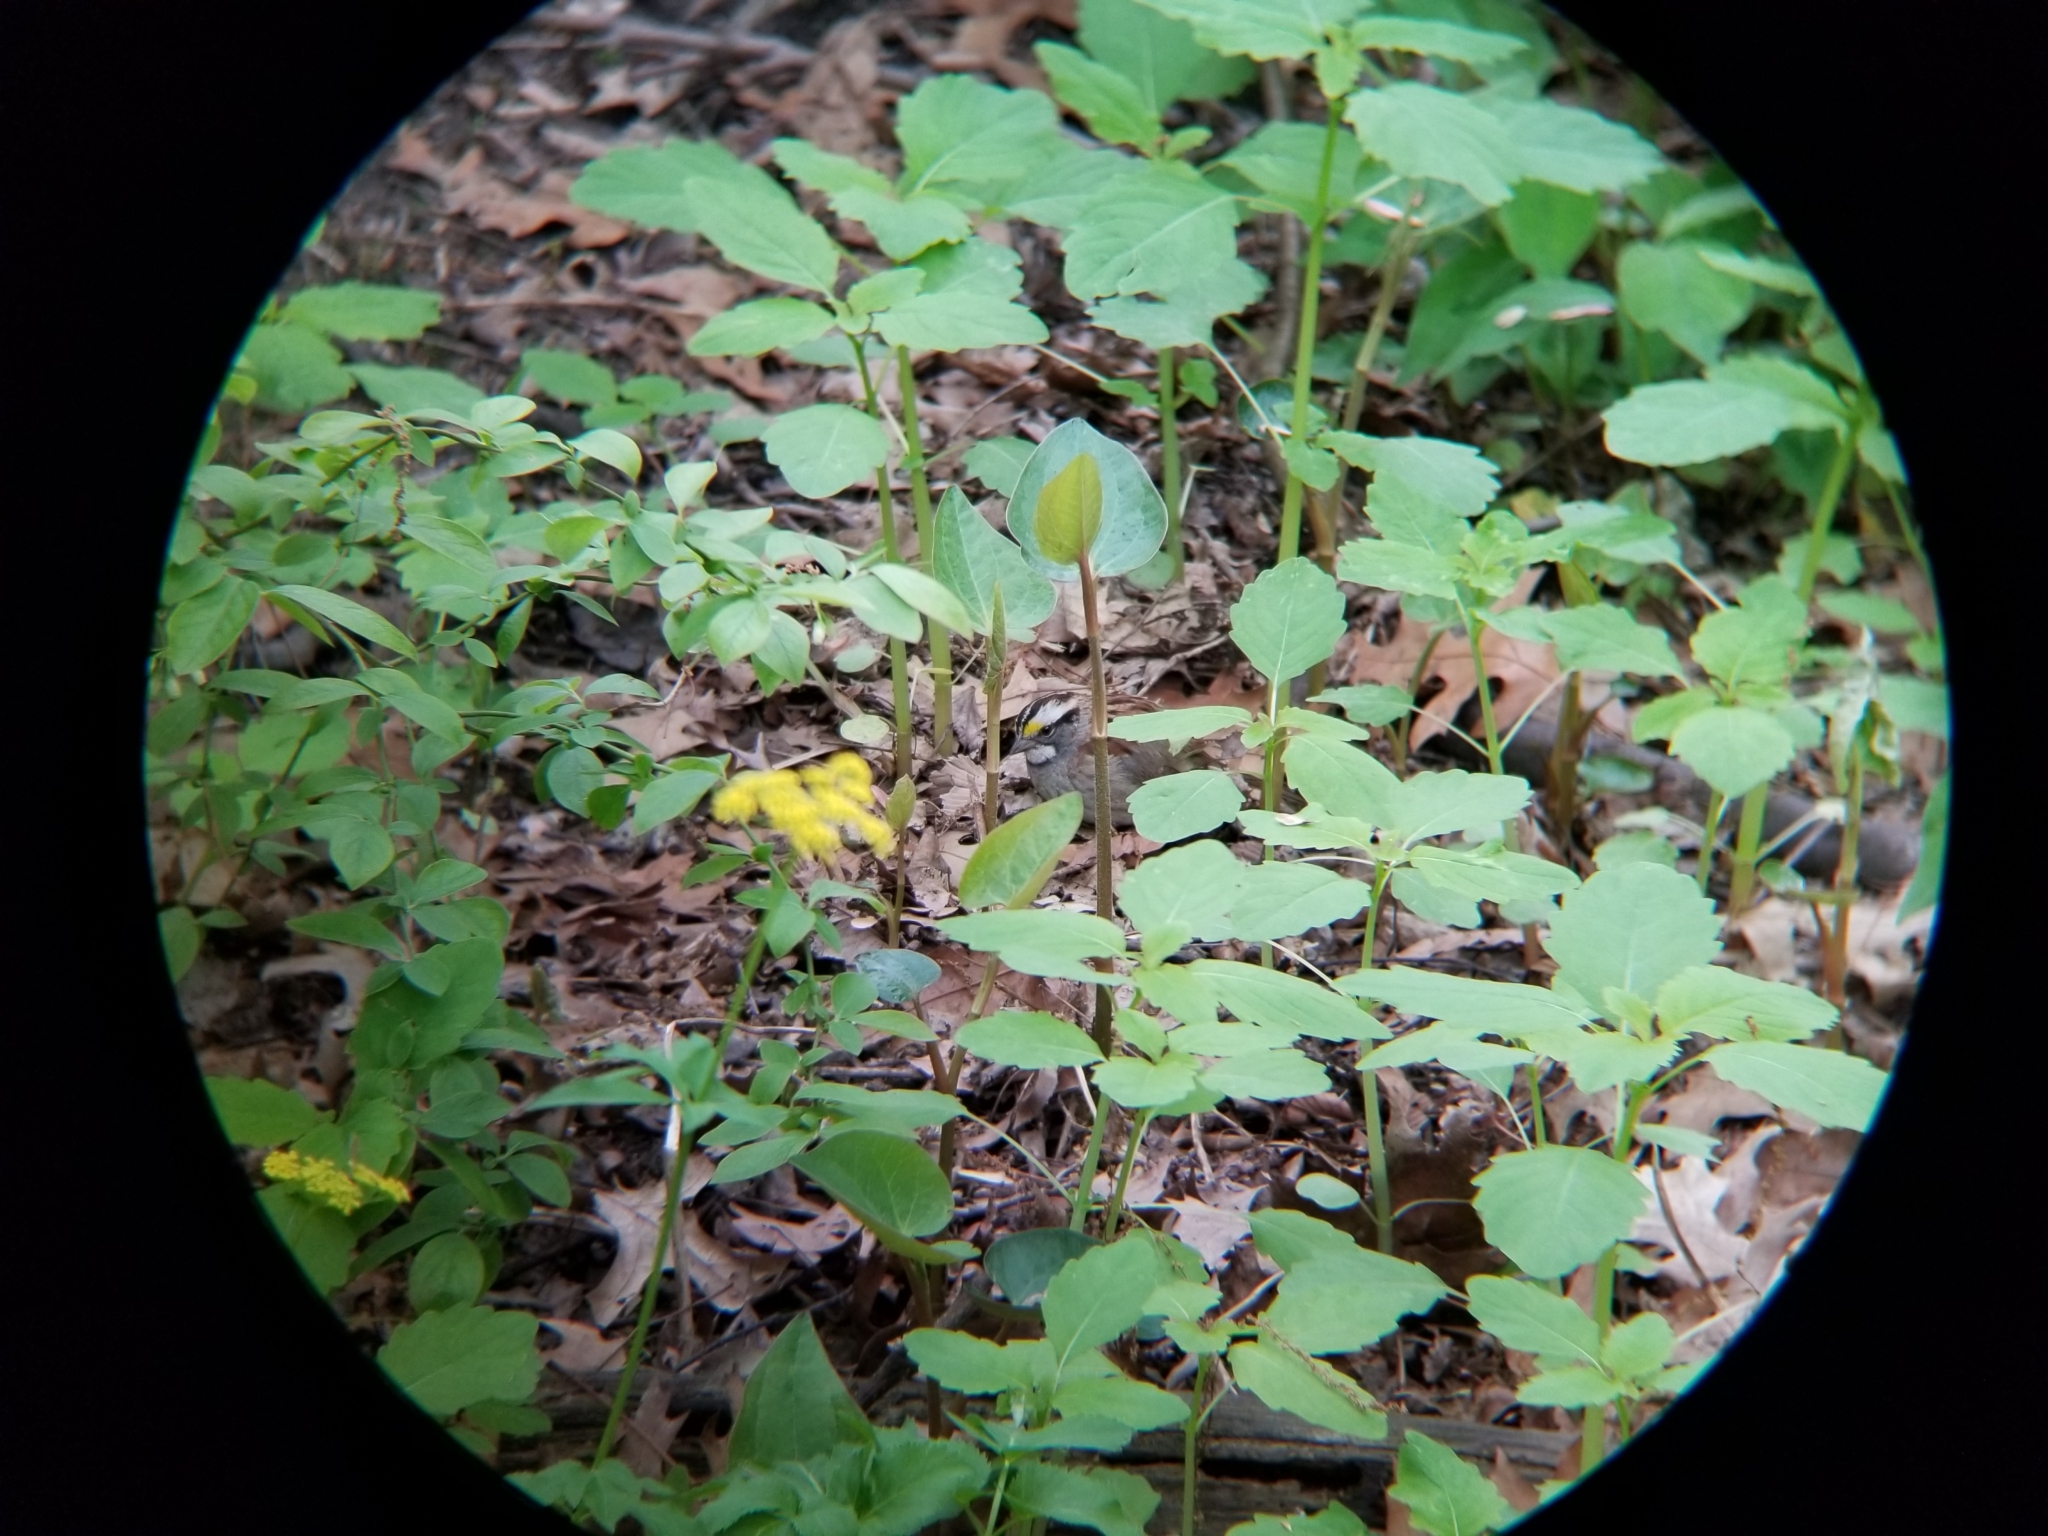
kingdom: Animalia
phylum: Chordata
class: Aves
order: Passeriformes
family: Passerellidae
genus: Zonotrichia
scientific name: Zonotrichia albicollis
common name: White-throated sparrow
